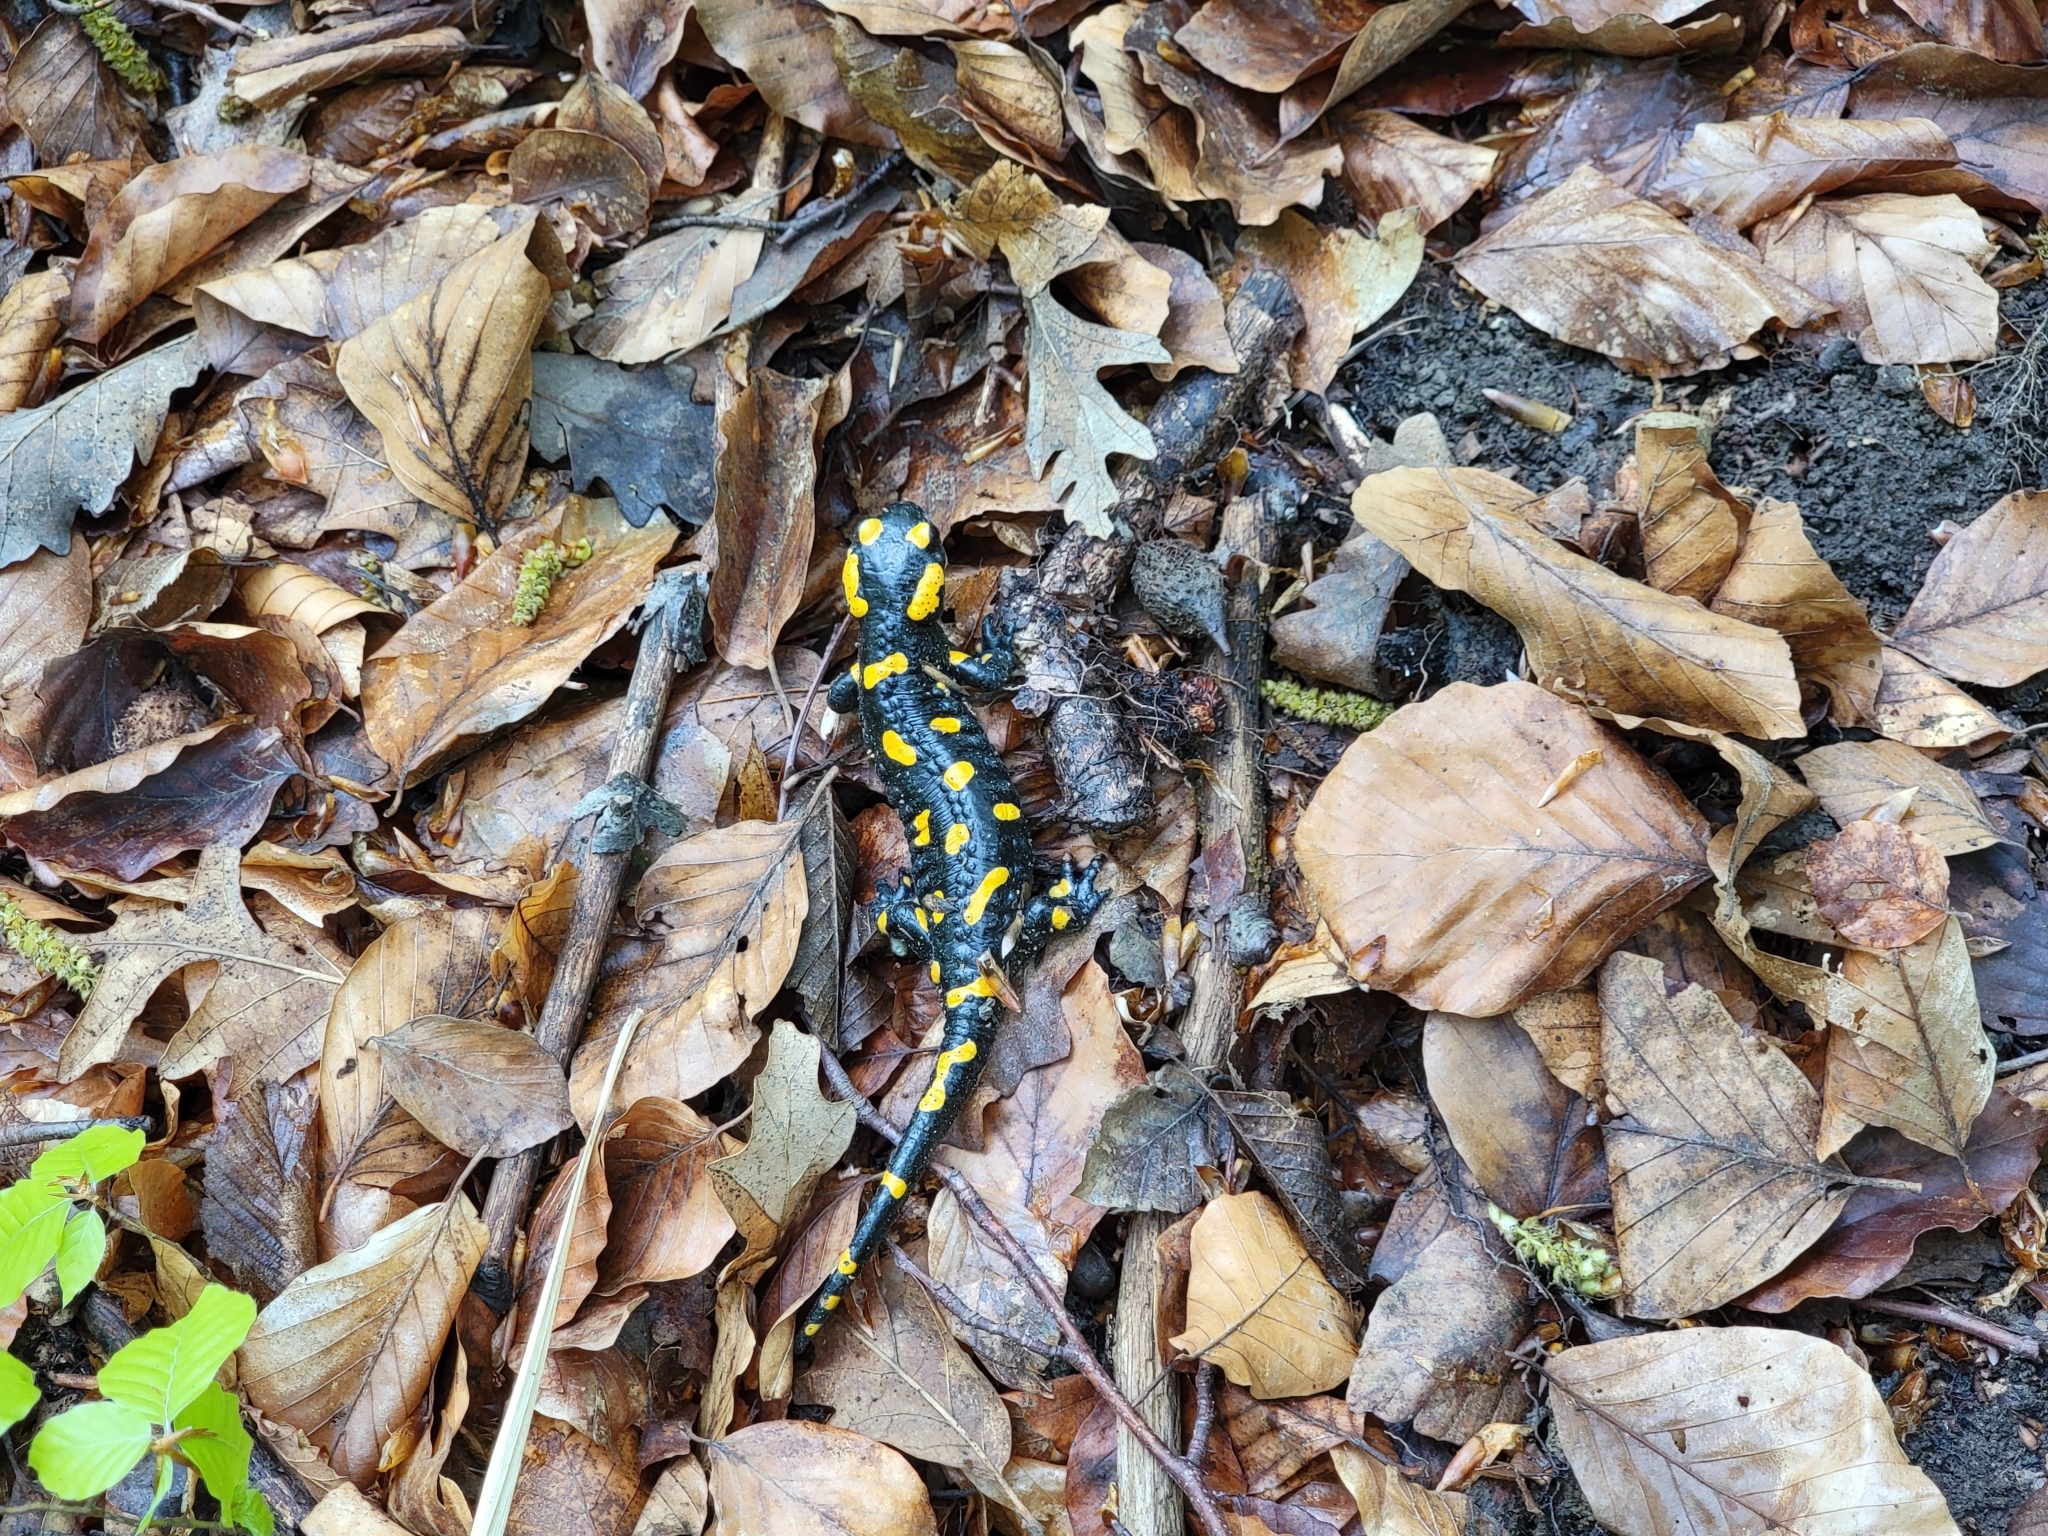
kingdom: Animalia
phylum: Chordata
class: Amphibia
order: Caudata
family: Salamandridae
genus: Salamandra
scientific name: Salamandra salamandra
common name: Fire salamander
